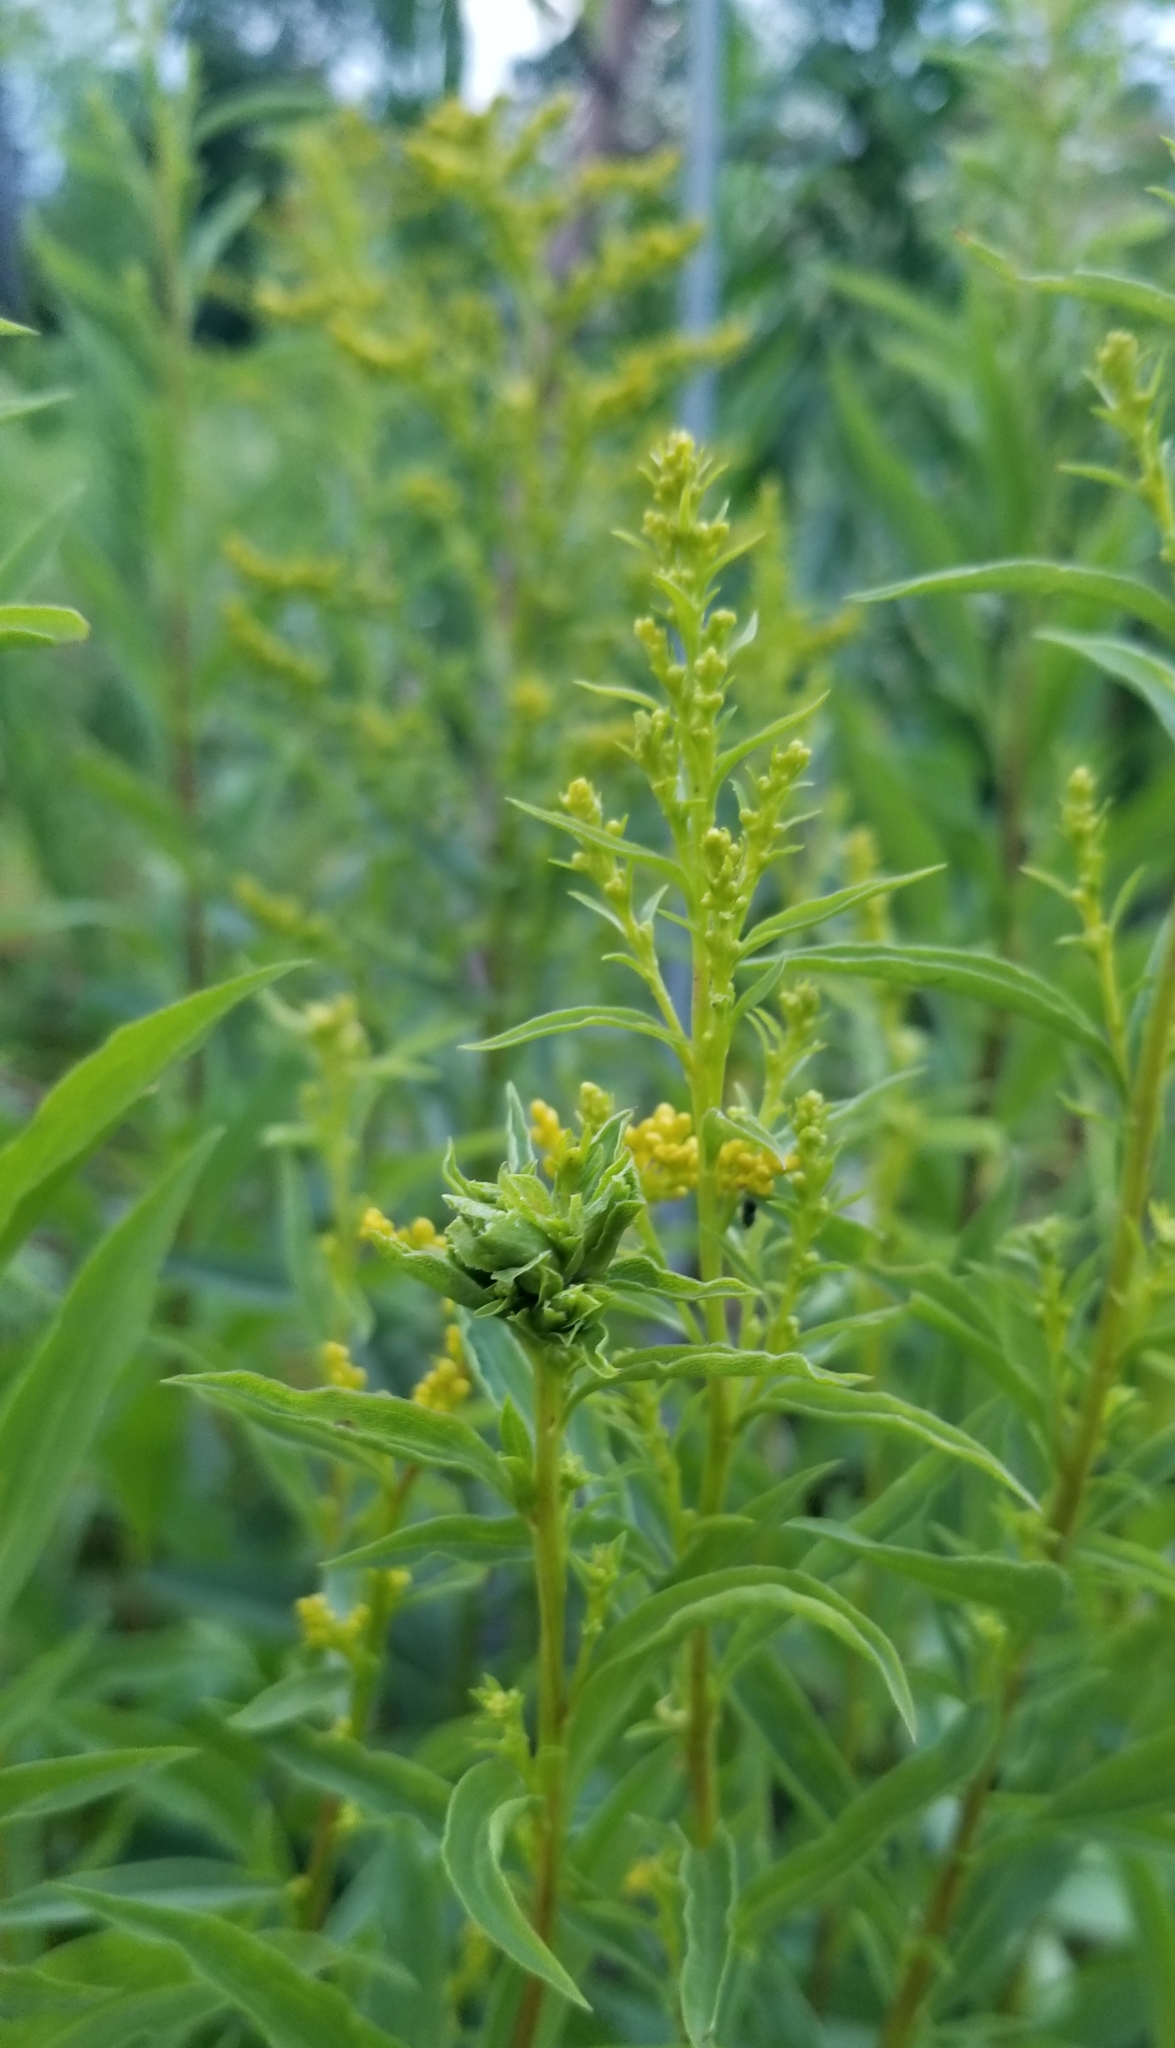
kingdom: Animalia
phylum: Arthropoda
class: Insecta
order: Diptera
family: Cecidomyiidae
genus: Asphondylia
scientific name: Asphondylia monacha
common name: Nun midge
